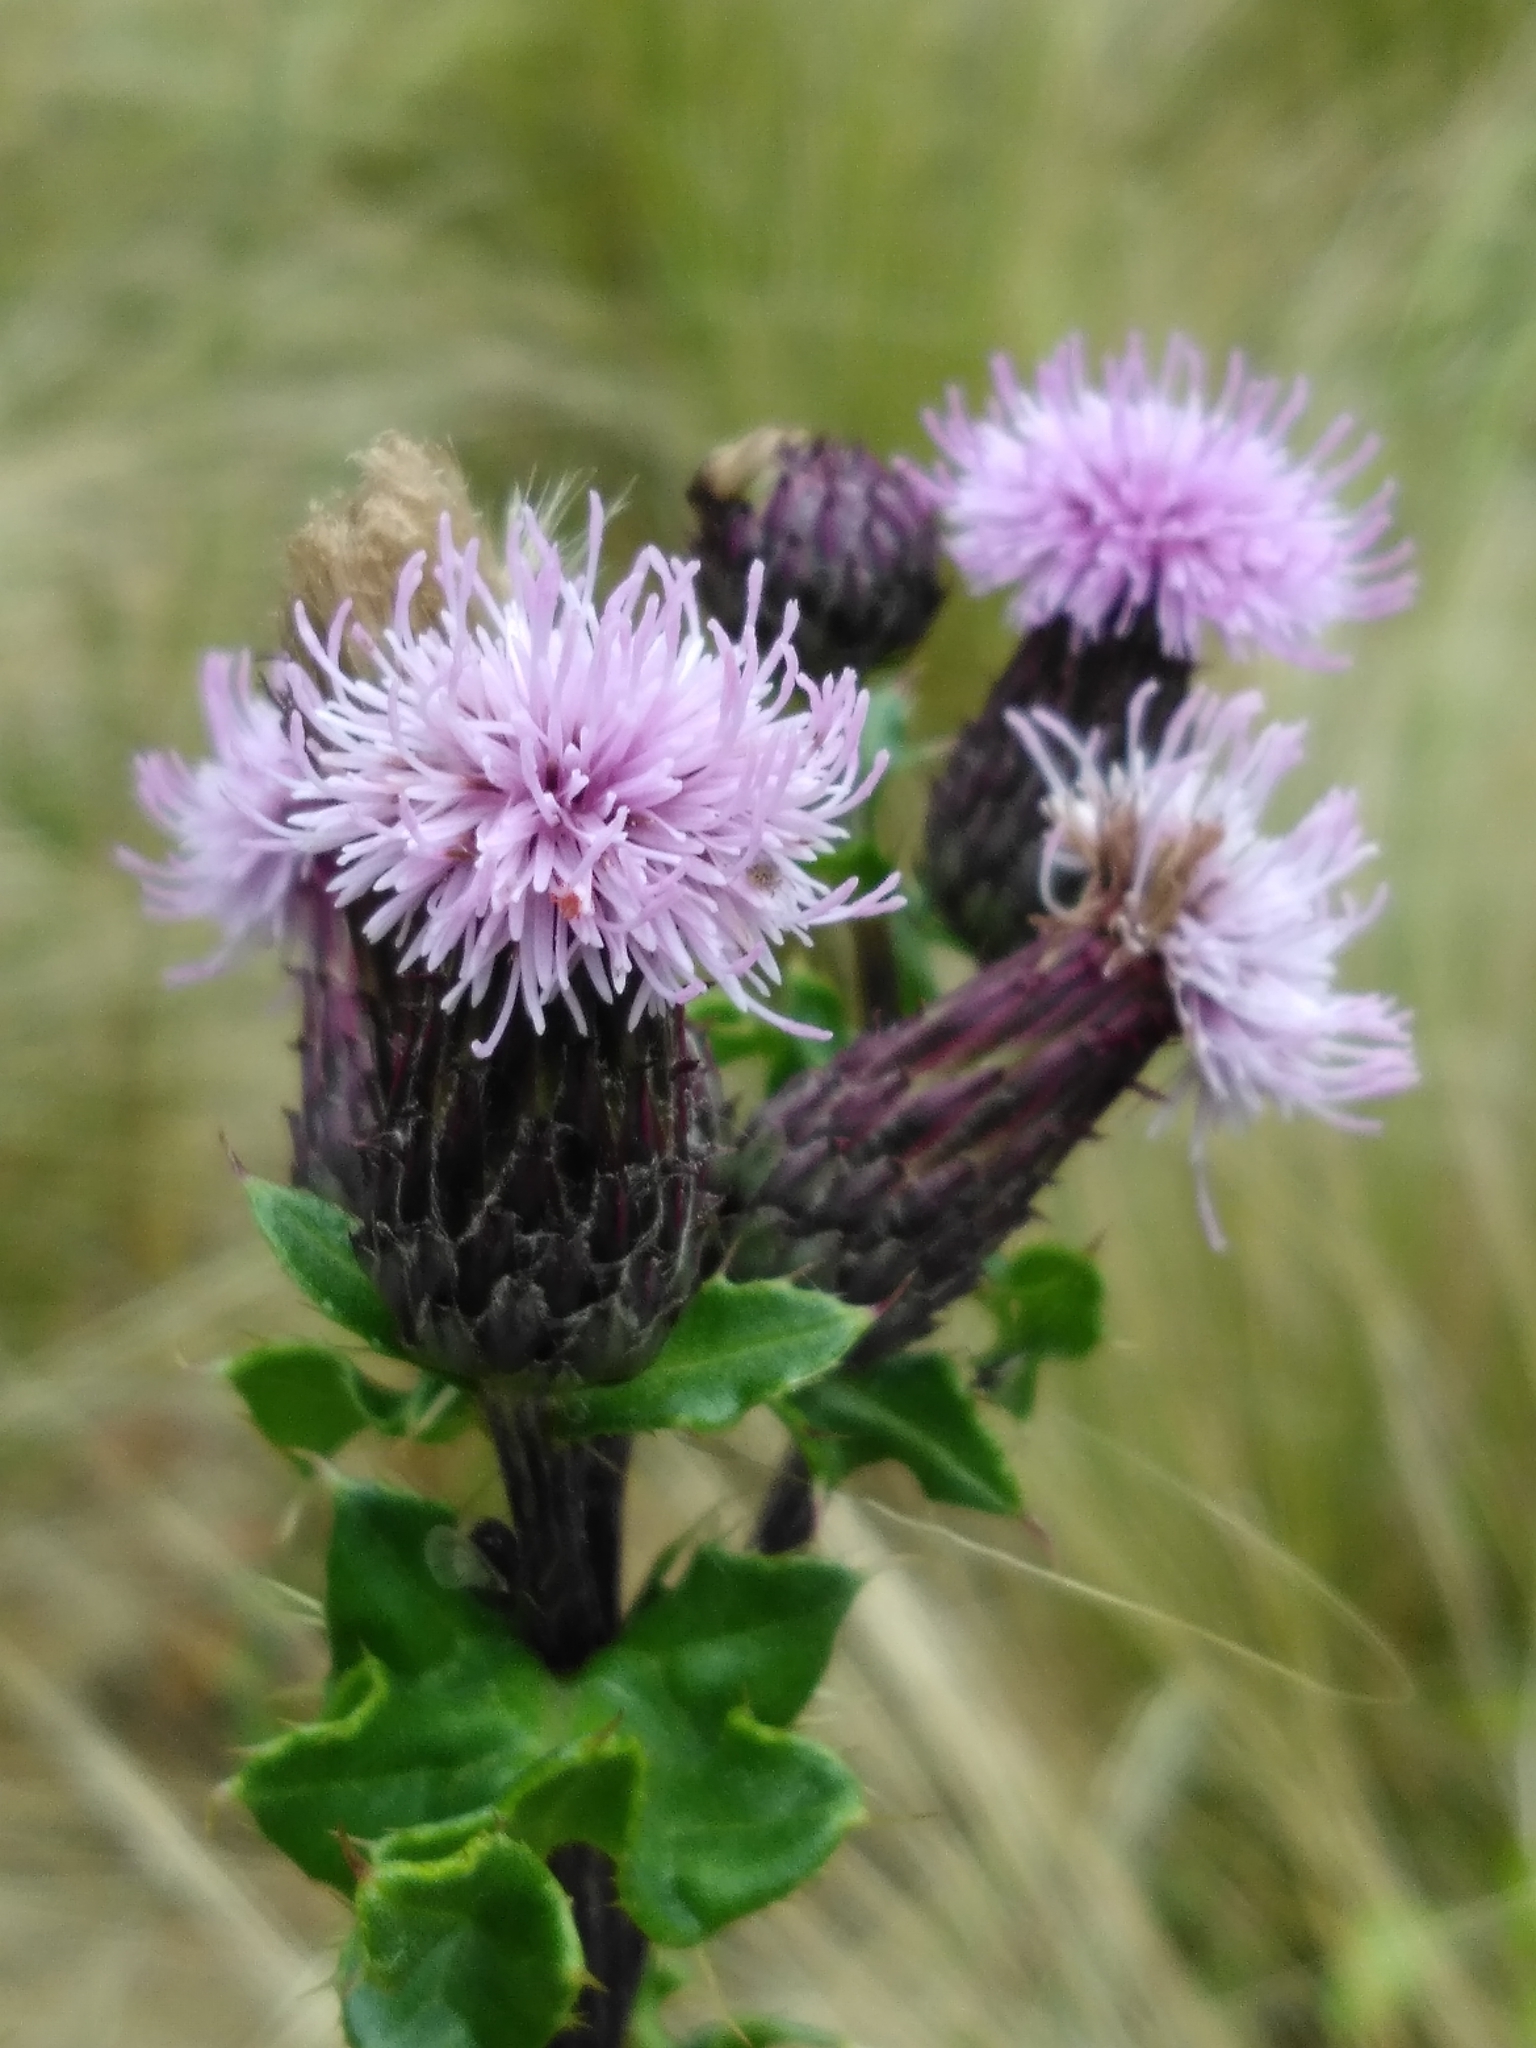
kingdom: Plantae
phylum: Tracheophyta
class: Magnoliopsida
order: Asterales
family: Asteraceae
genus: Cirsium
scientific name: Cirsium arvense
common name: Creeping thistle
